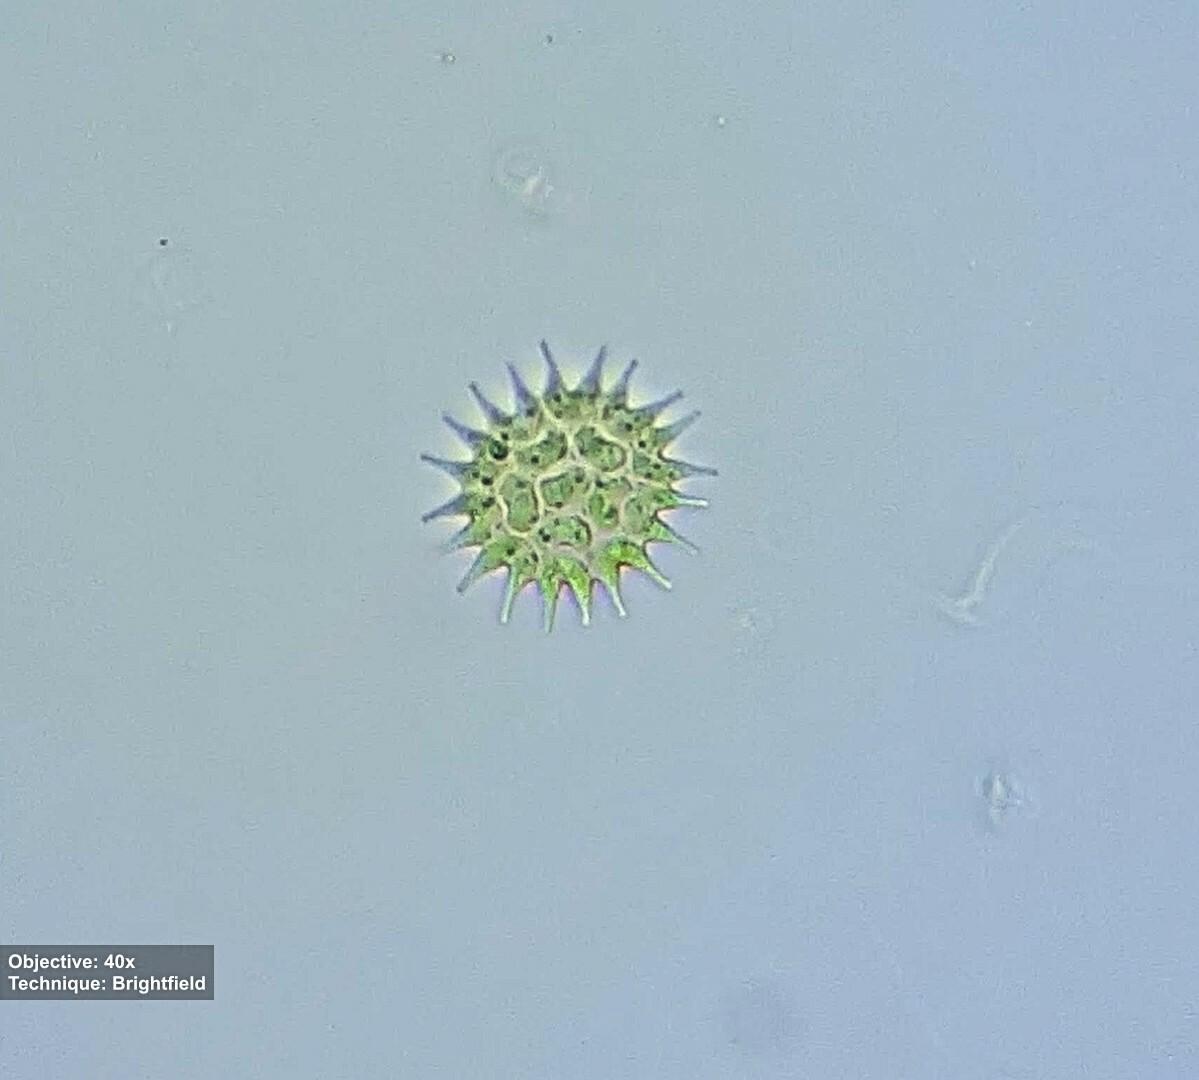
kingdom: Plantae
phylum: Chlorophyta
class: Chlorophyceae
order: Sphaeropleales
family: Hydrodictyaceae
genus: Pseudopediastrum
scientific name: Pseudopediastrum boryanum
